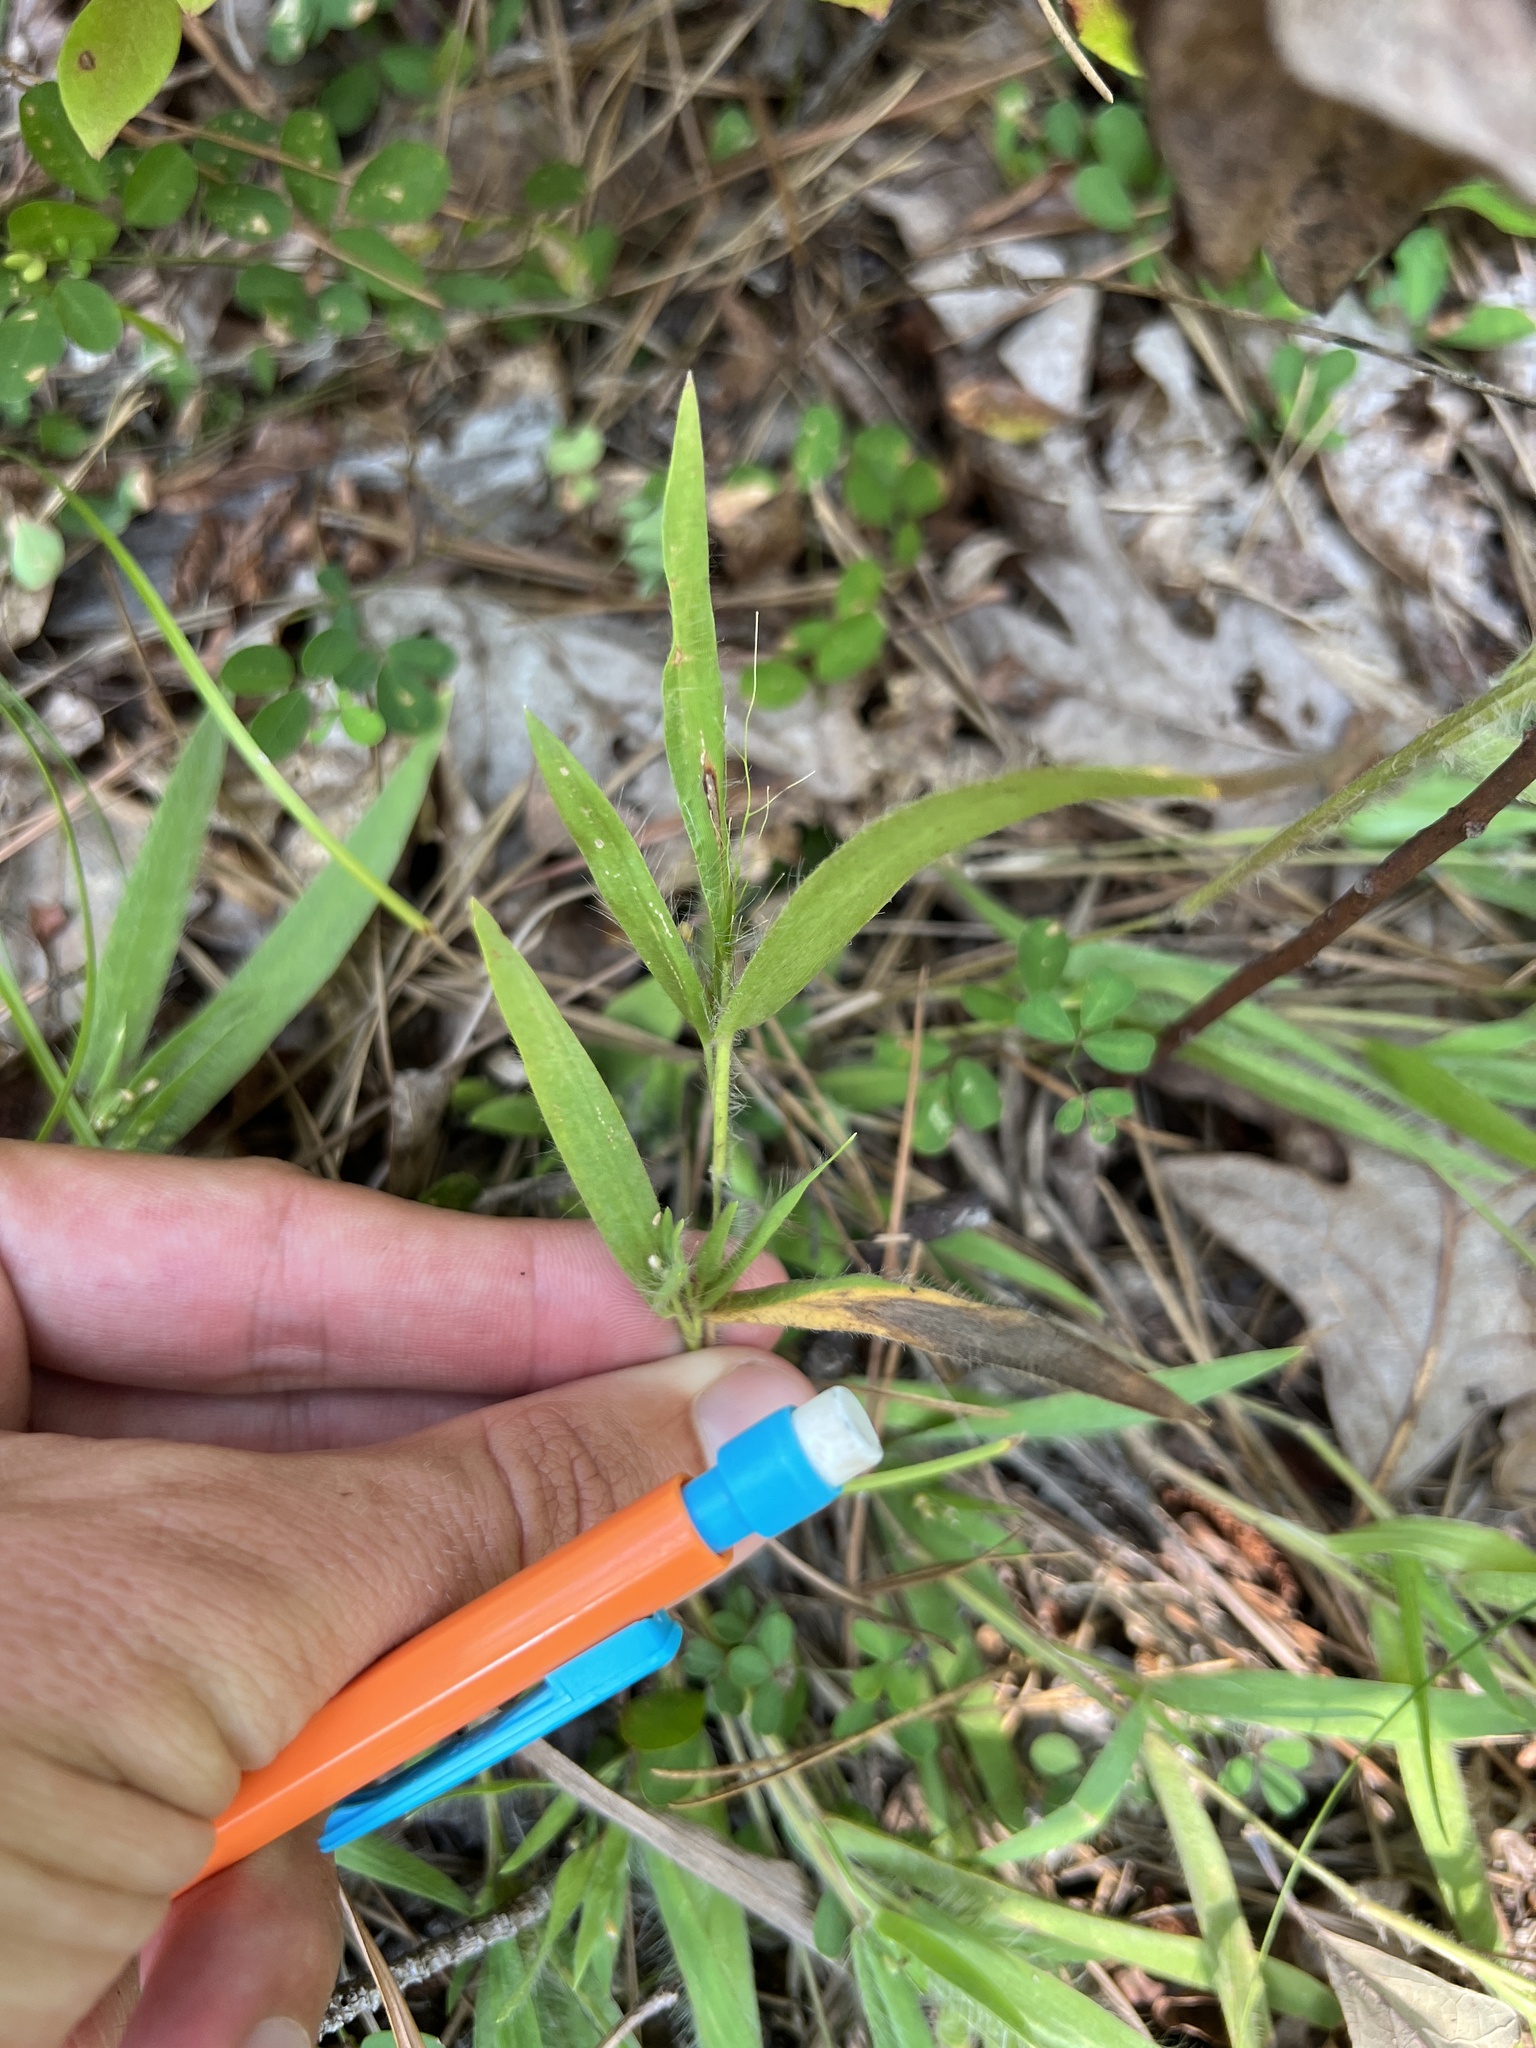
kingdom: Plantae
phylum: Tracheophyta
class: Liliopsida
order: Poales
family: Poaceae
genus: Dichanthelium
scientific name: Dichanthelium villosissimum
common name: White-haired panicgrass
